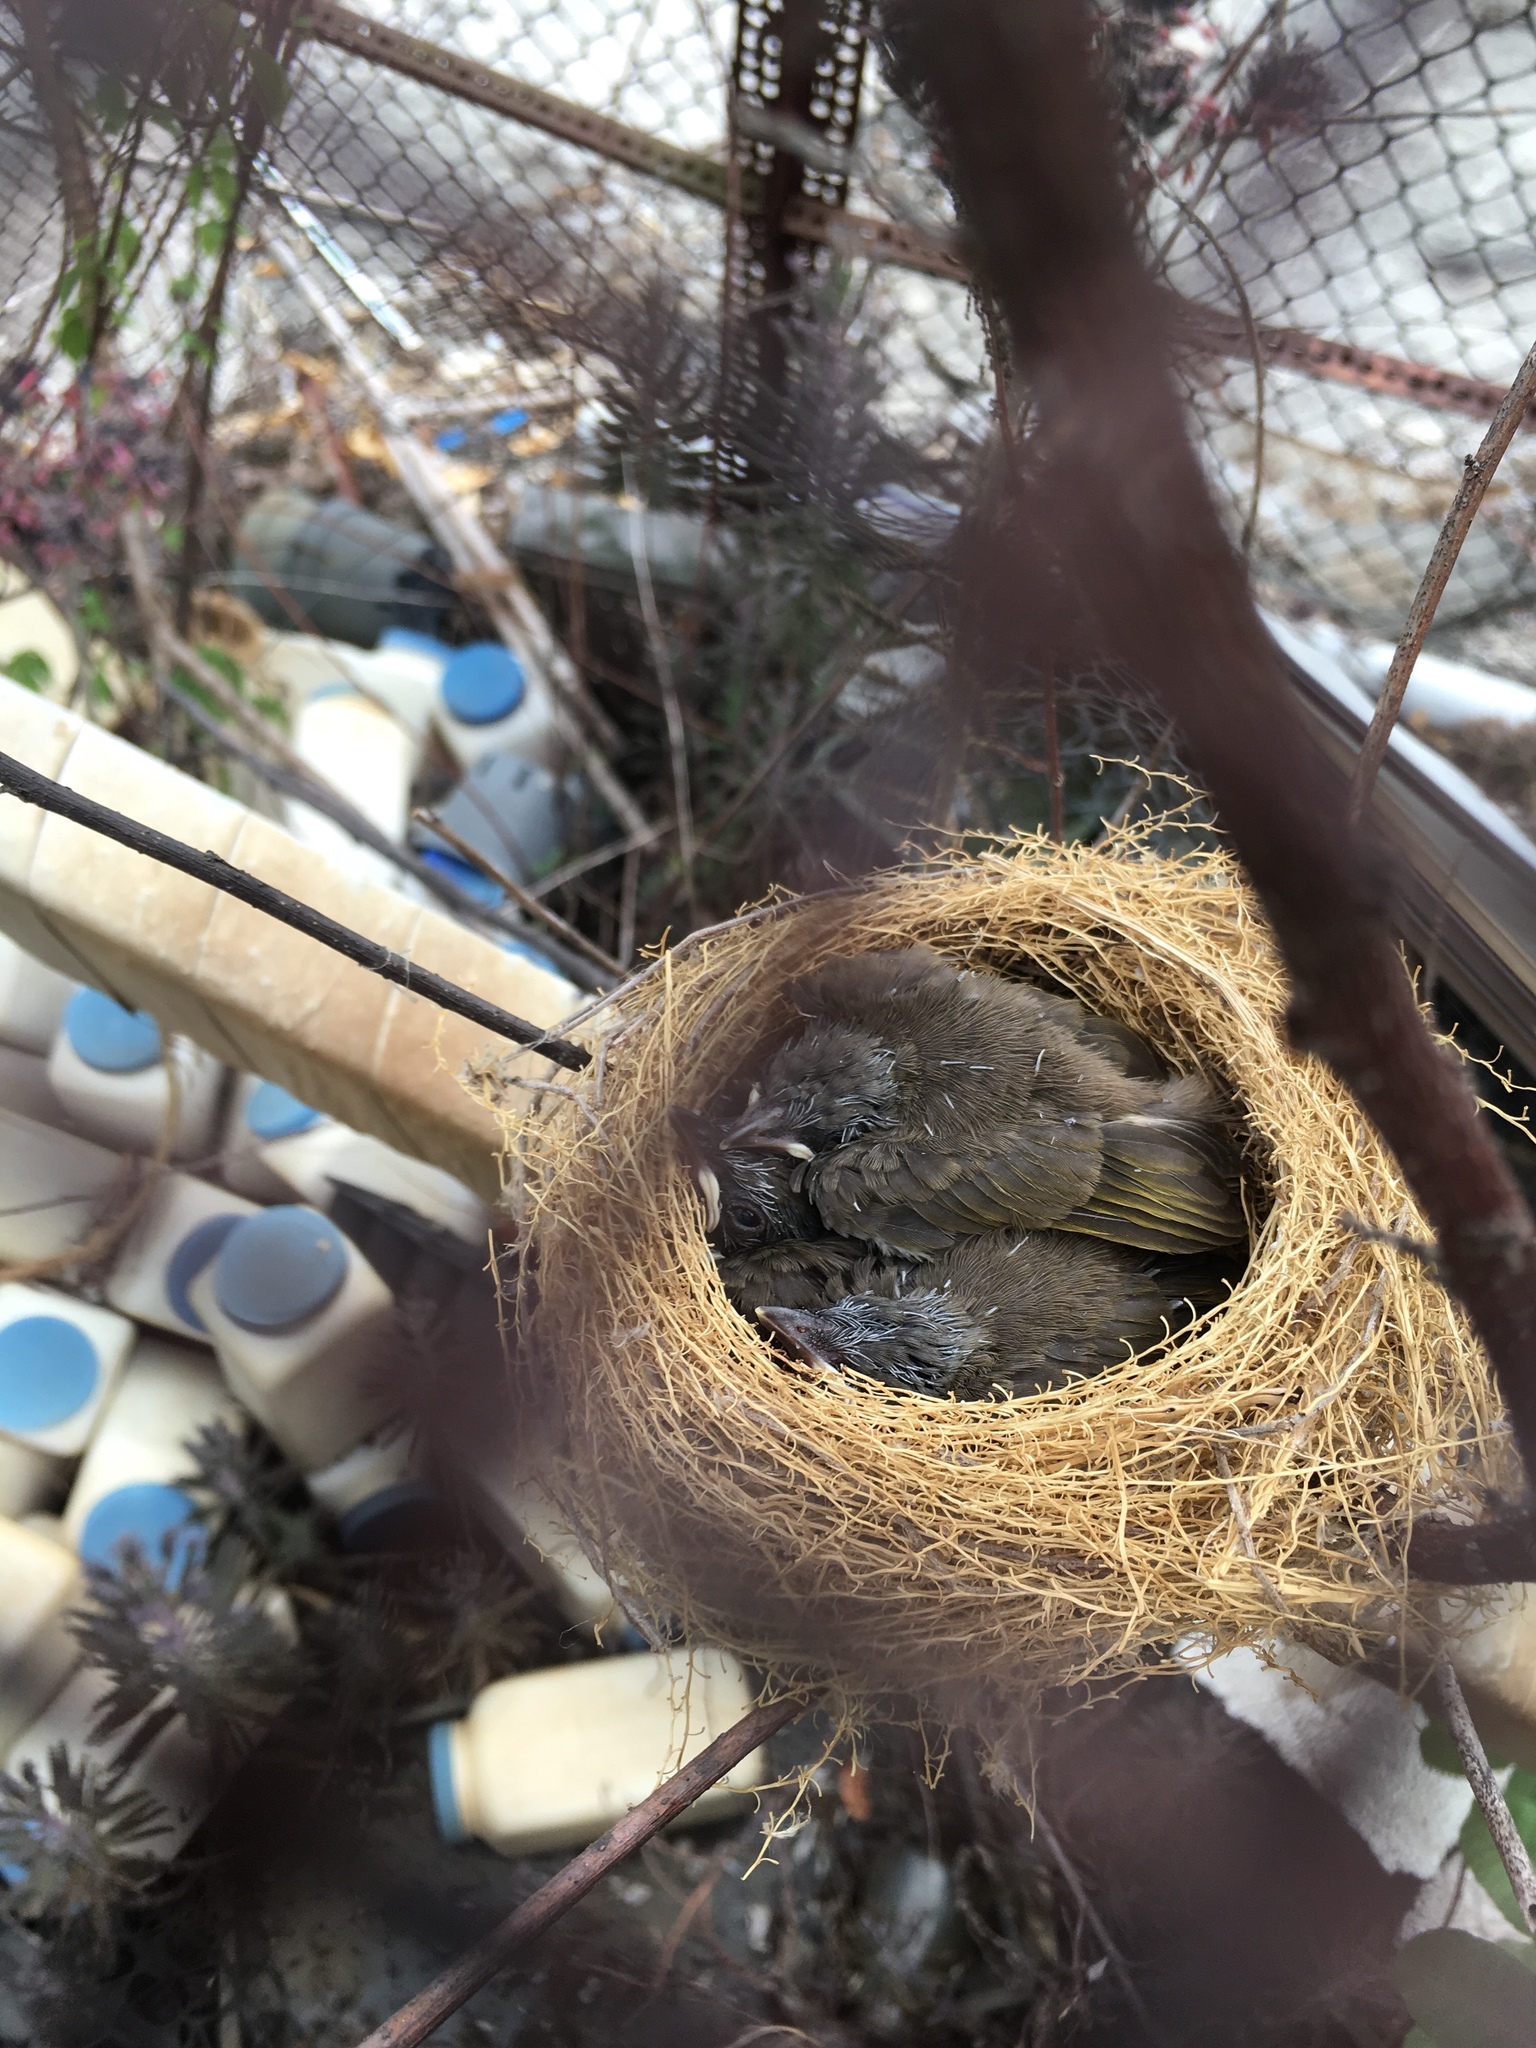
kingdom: Animalia
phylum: Chordata
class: Aves
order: Passeriformes
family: Pycnonotidae
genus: Pycnonotus
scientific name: Pycnonotus sinensis
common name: Light-vented bulbul
